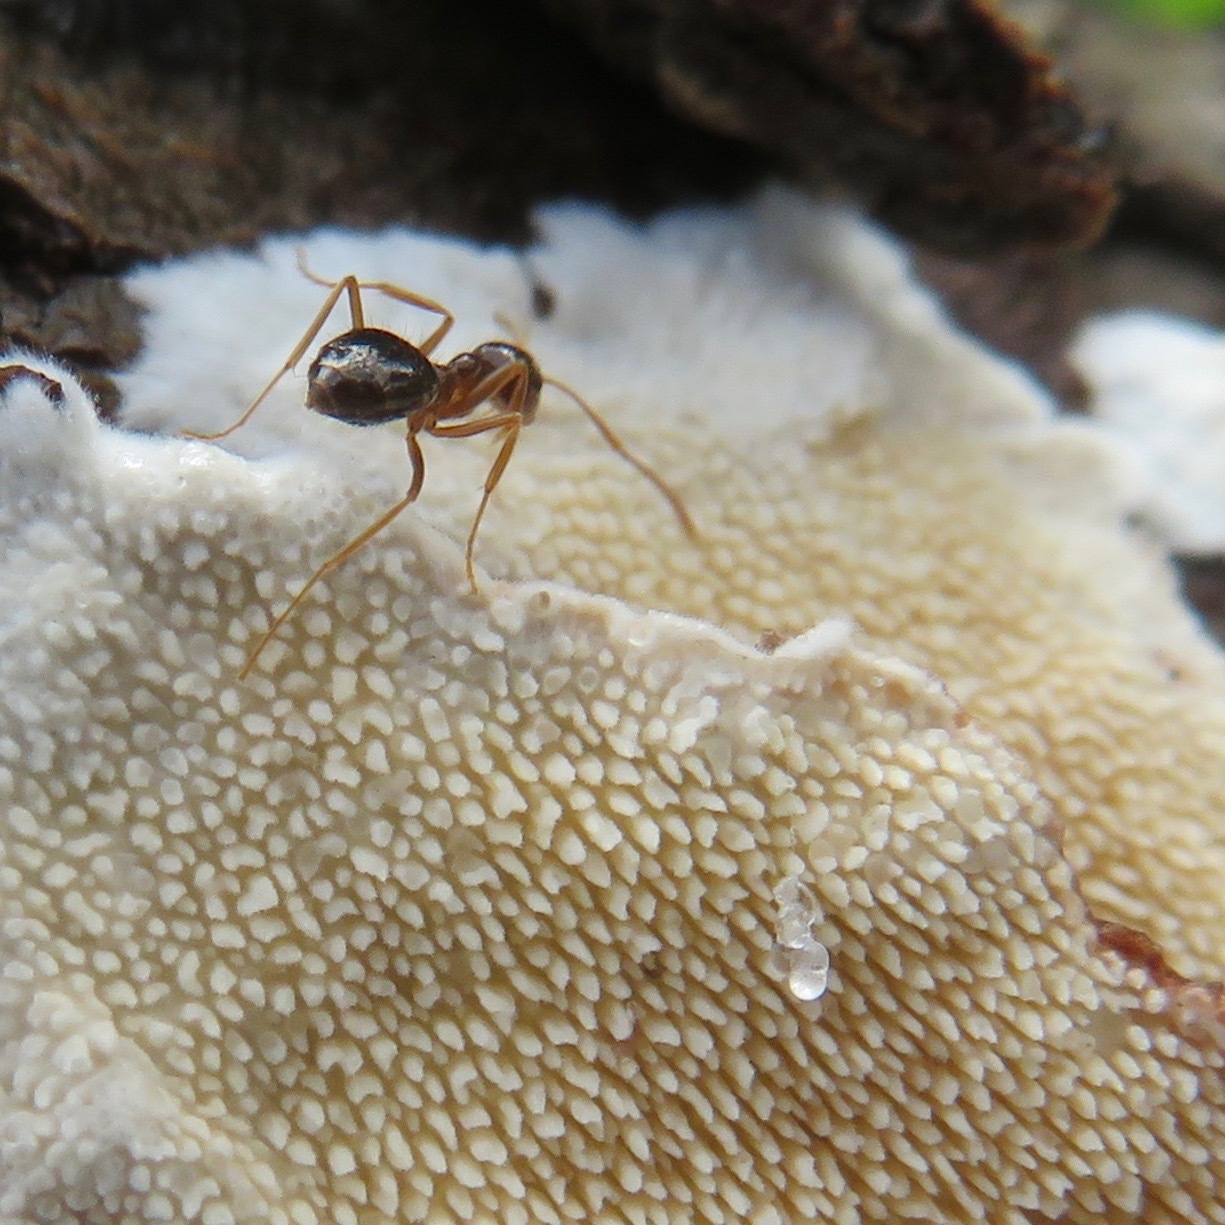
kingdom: Animalia
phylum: Arthropoda
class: Insecta
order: Hymenoptera
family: Formicidae
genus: Prenolepis
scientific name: Prenolepis imparis
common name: Small honey ant
